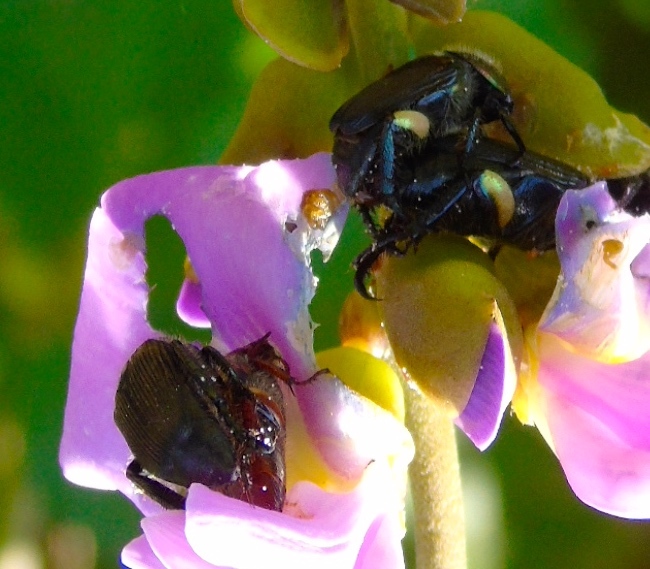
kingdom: Animalia
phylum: Arthropoda
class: Insecta
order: Coleoptera
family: Scarabaeidae
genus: Strigoderma
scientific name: Strigoderma sulcipennis
